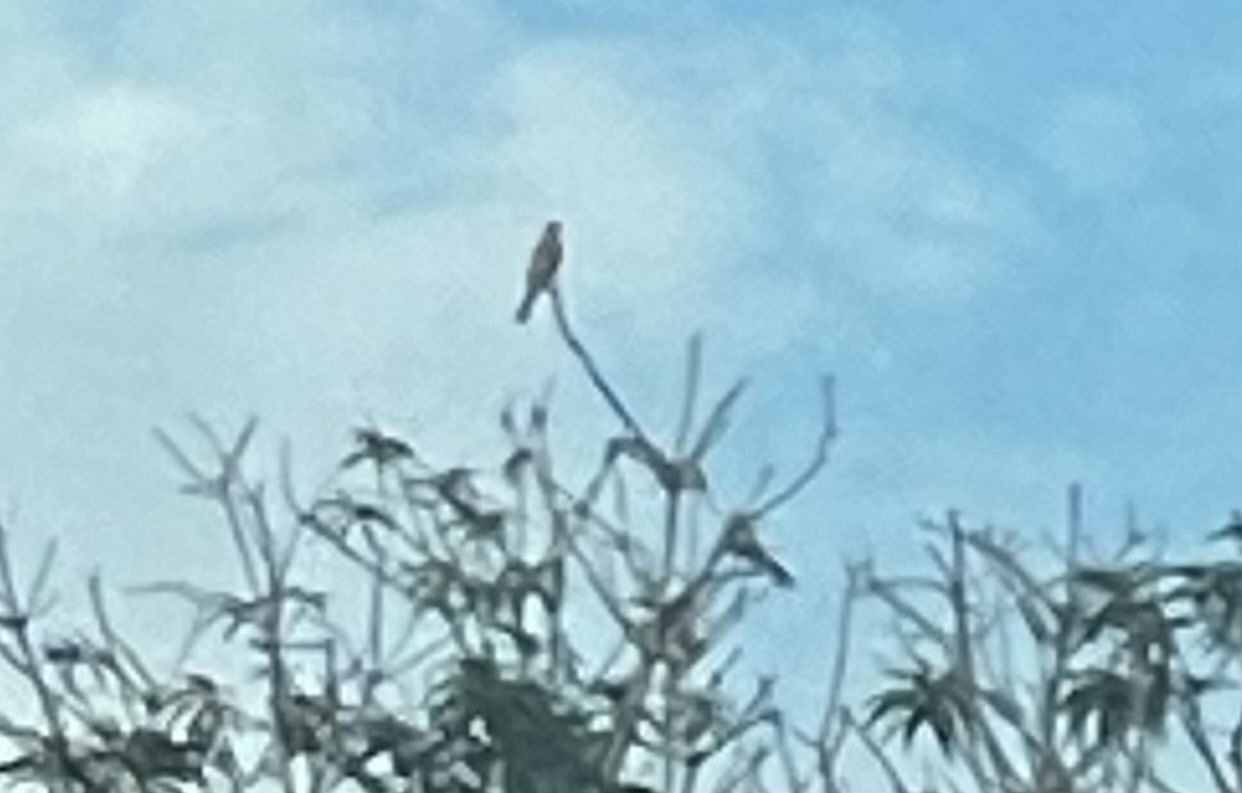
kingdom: Animalia
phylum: Chordata
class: Aves
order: Passeriformes
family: Cardinalidae
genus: Spiza
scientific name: Spiza americana
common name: Dickcissel
